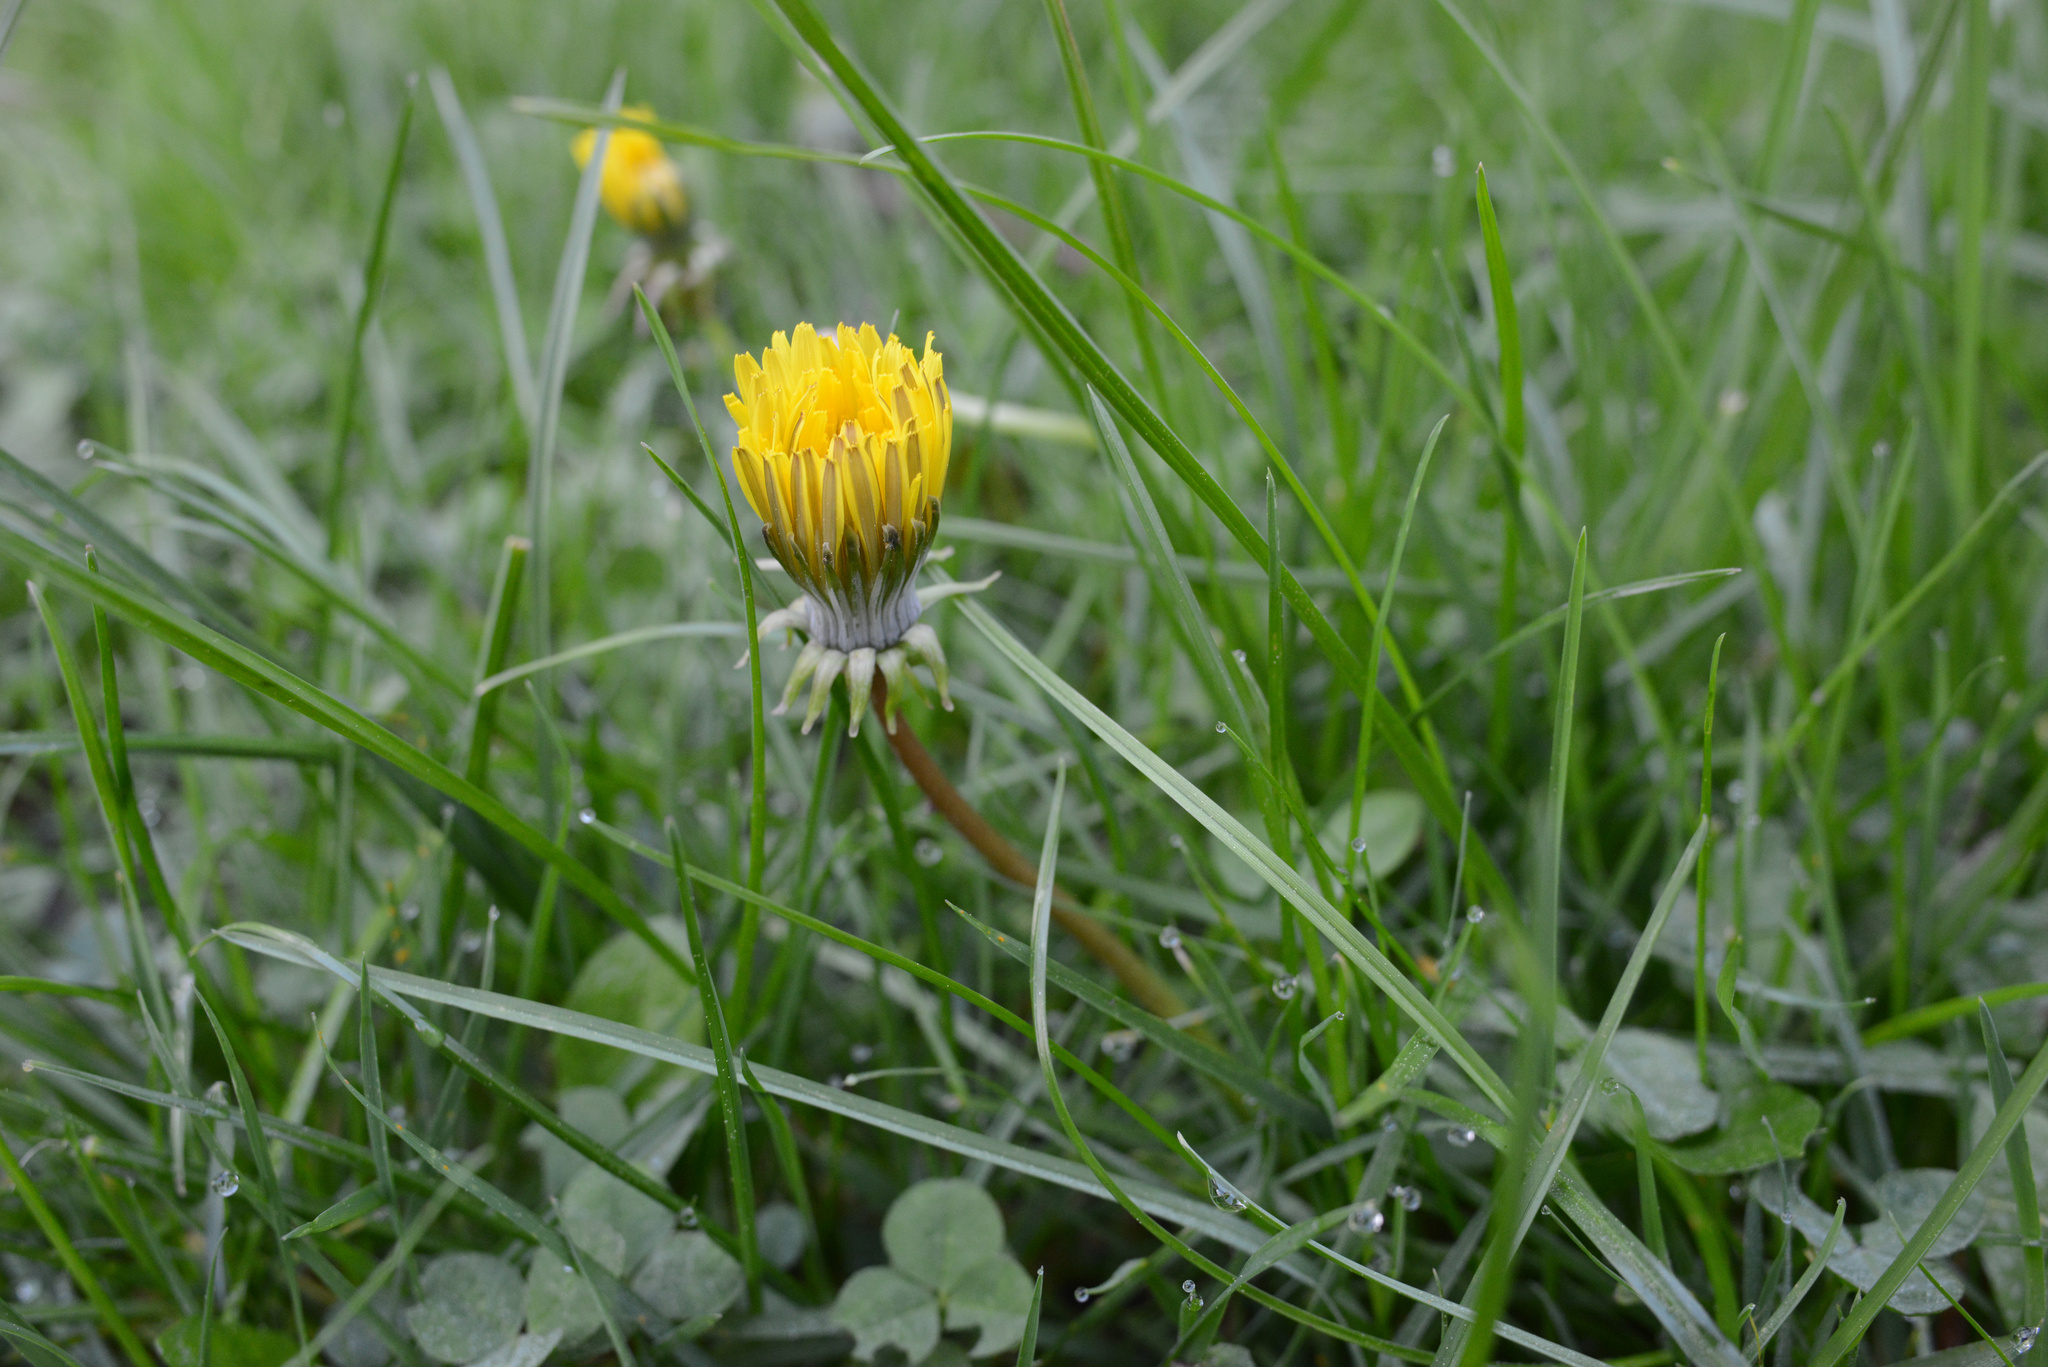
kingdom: Plantae
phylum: Tracheophyta
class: Magnoliopsida
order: Asterales
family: Asteraceae
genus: Taraxacum
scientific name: Taraxacum officinale
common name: Common dandelion
